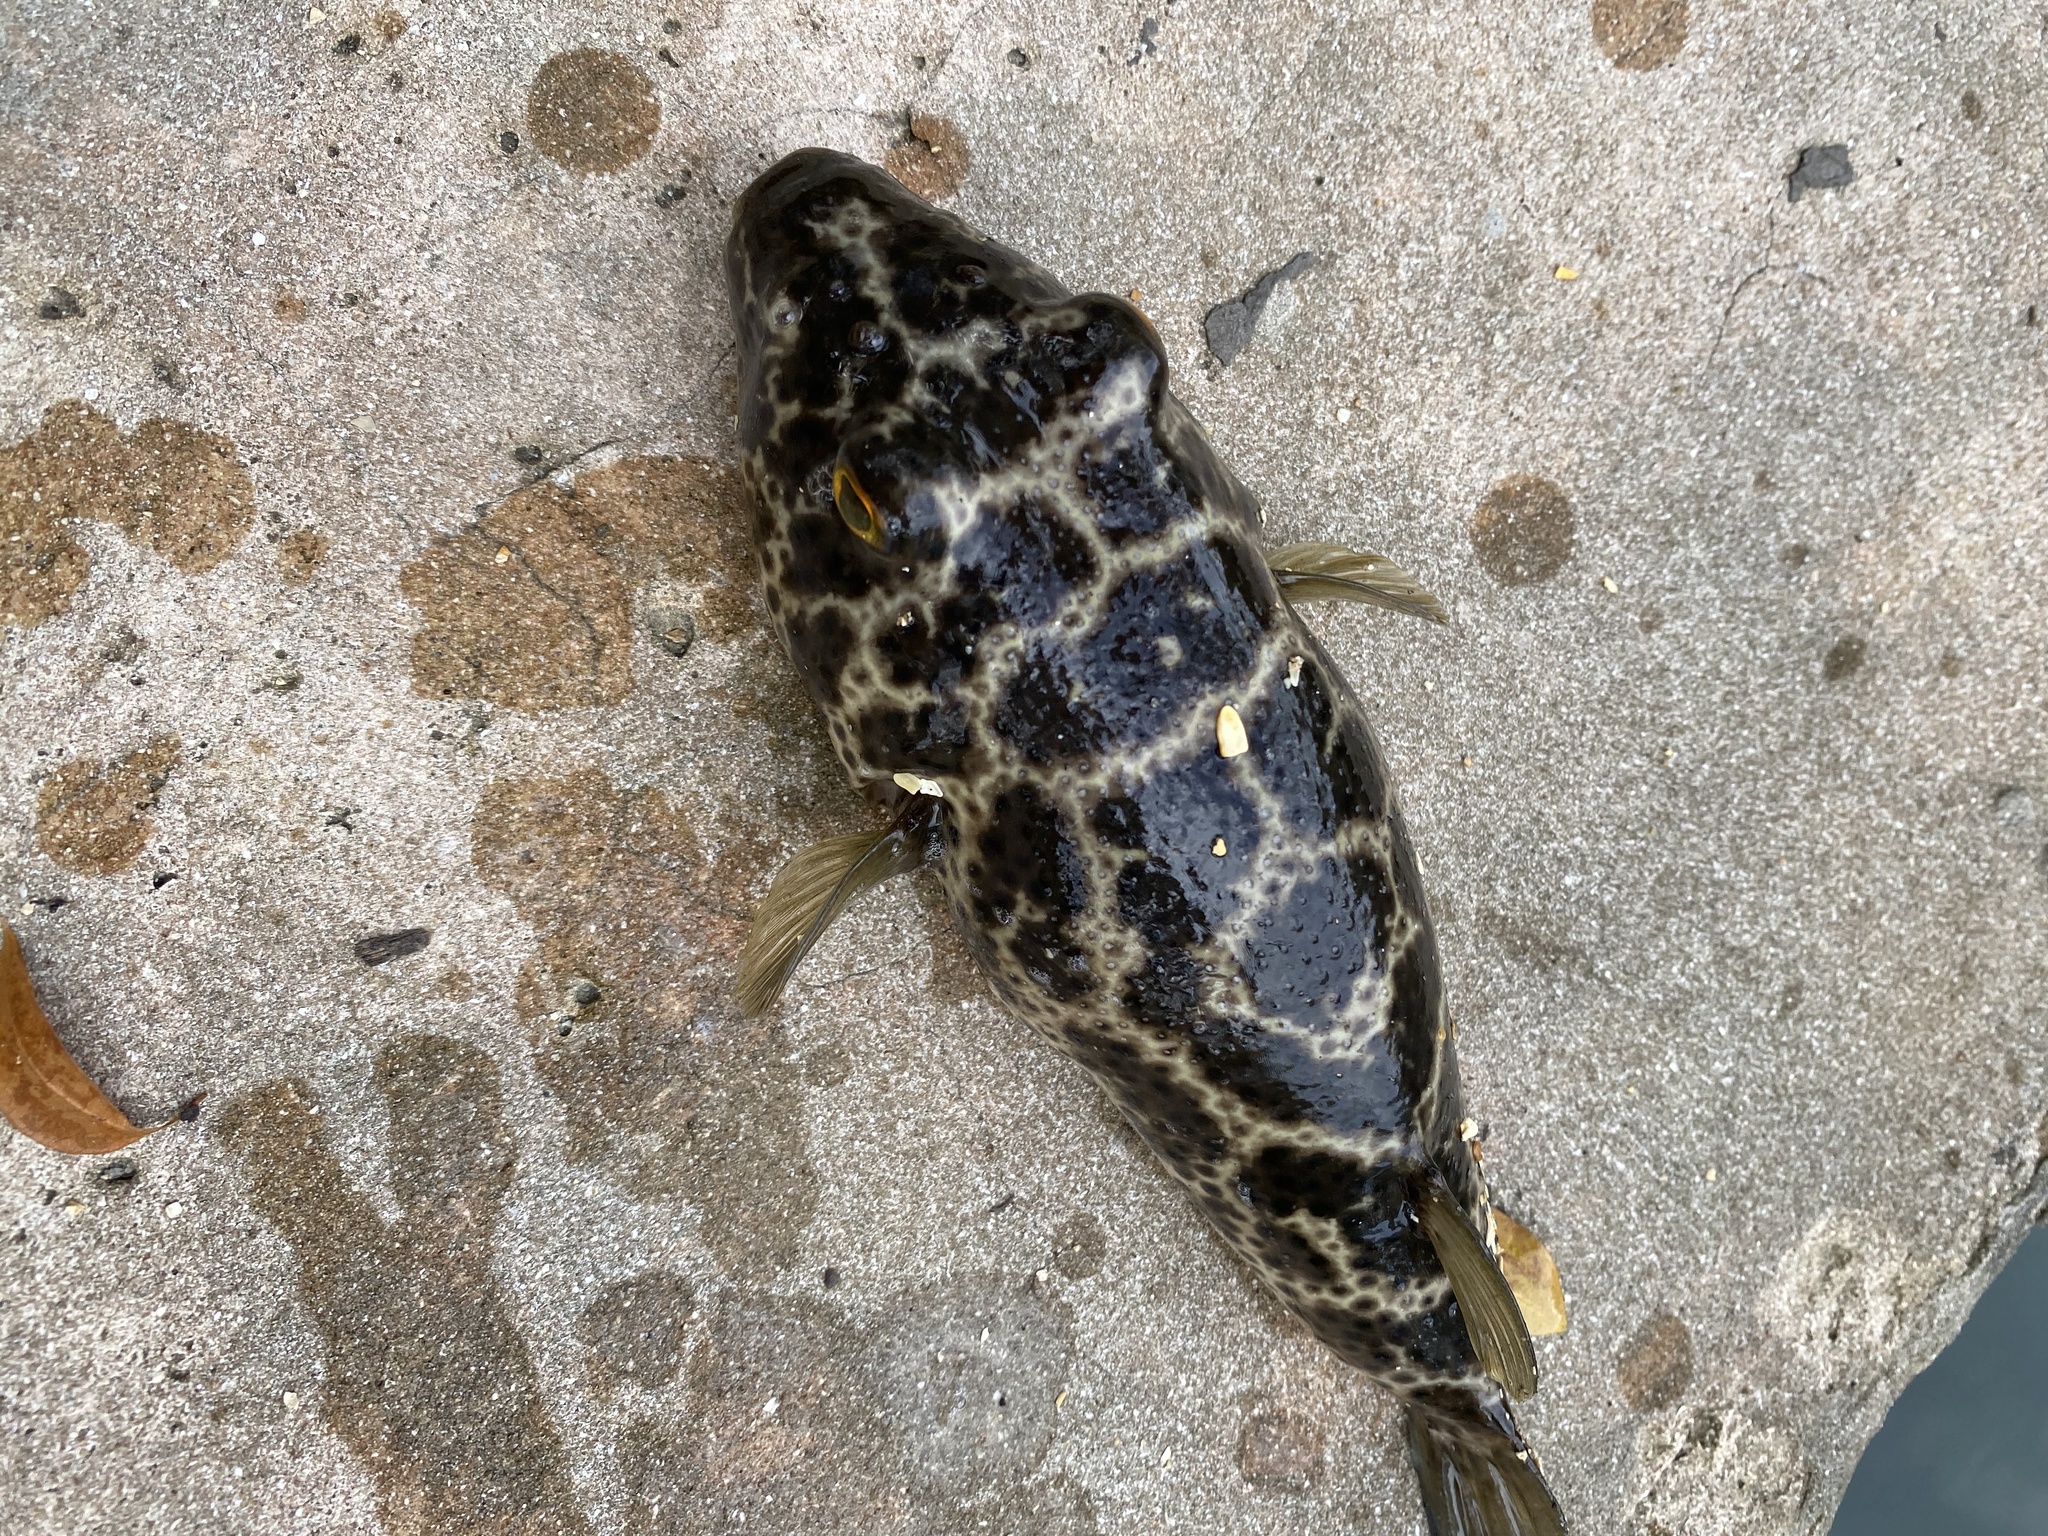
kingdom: Animalia
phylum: Chordata
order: Tetraodontiformes
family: Tetraodontidae
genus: Sphoeroides
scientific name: Sphoeroides testudineus
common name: Checkered puffer
